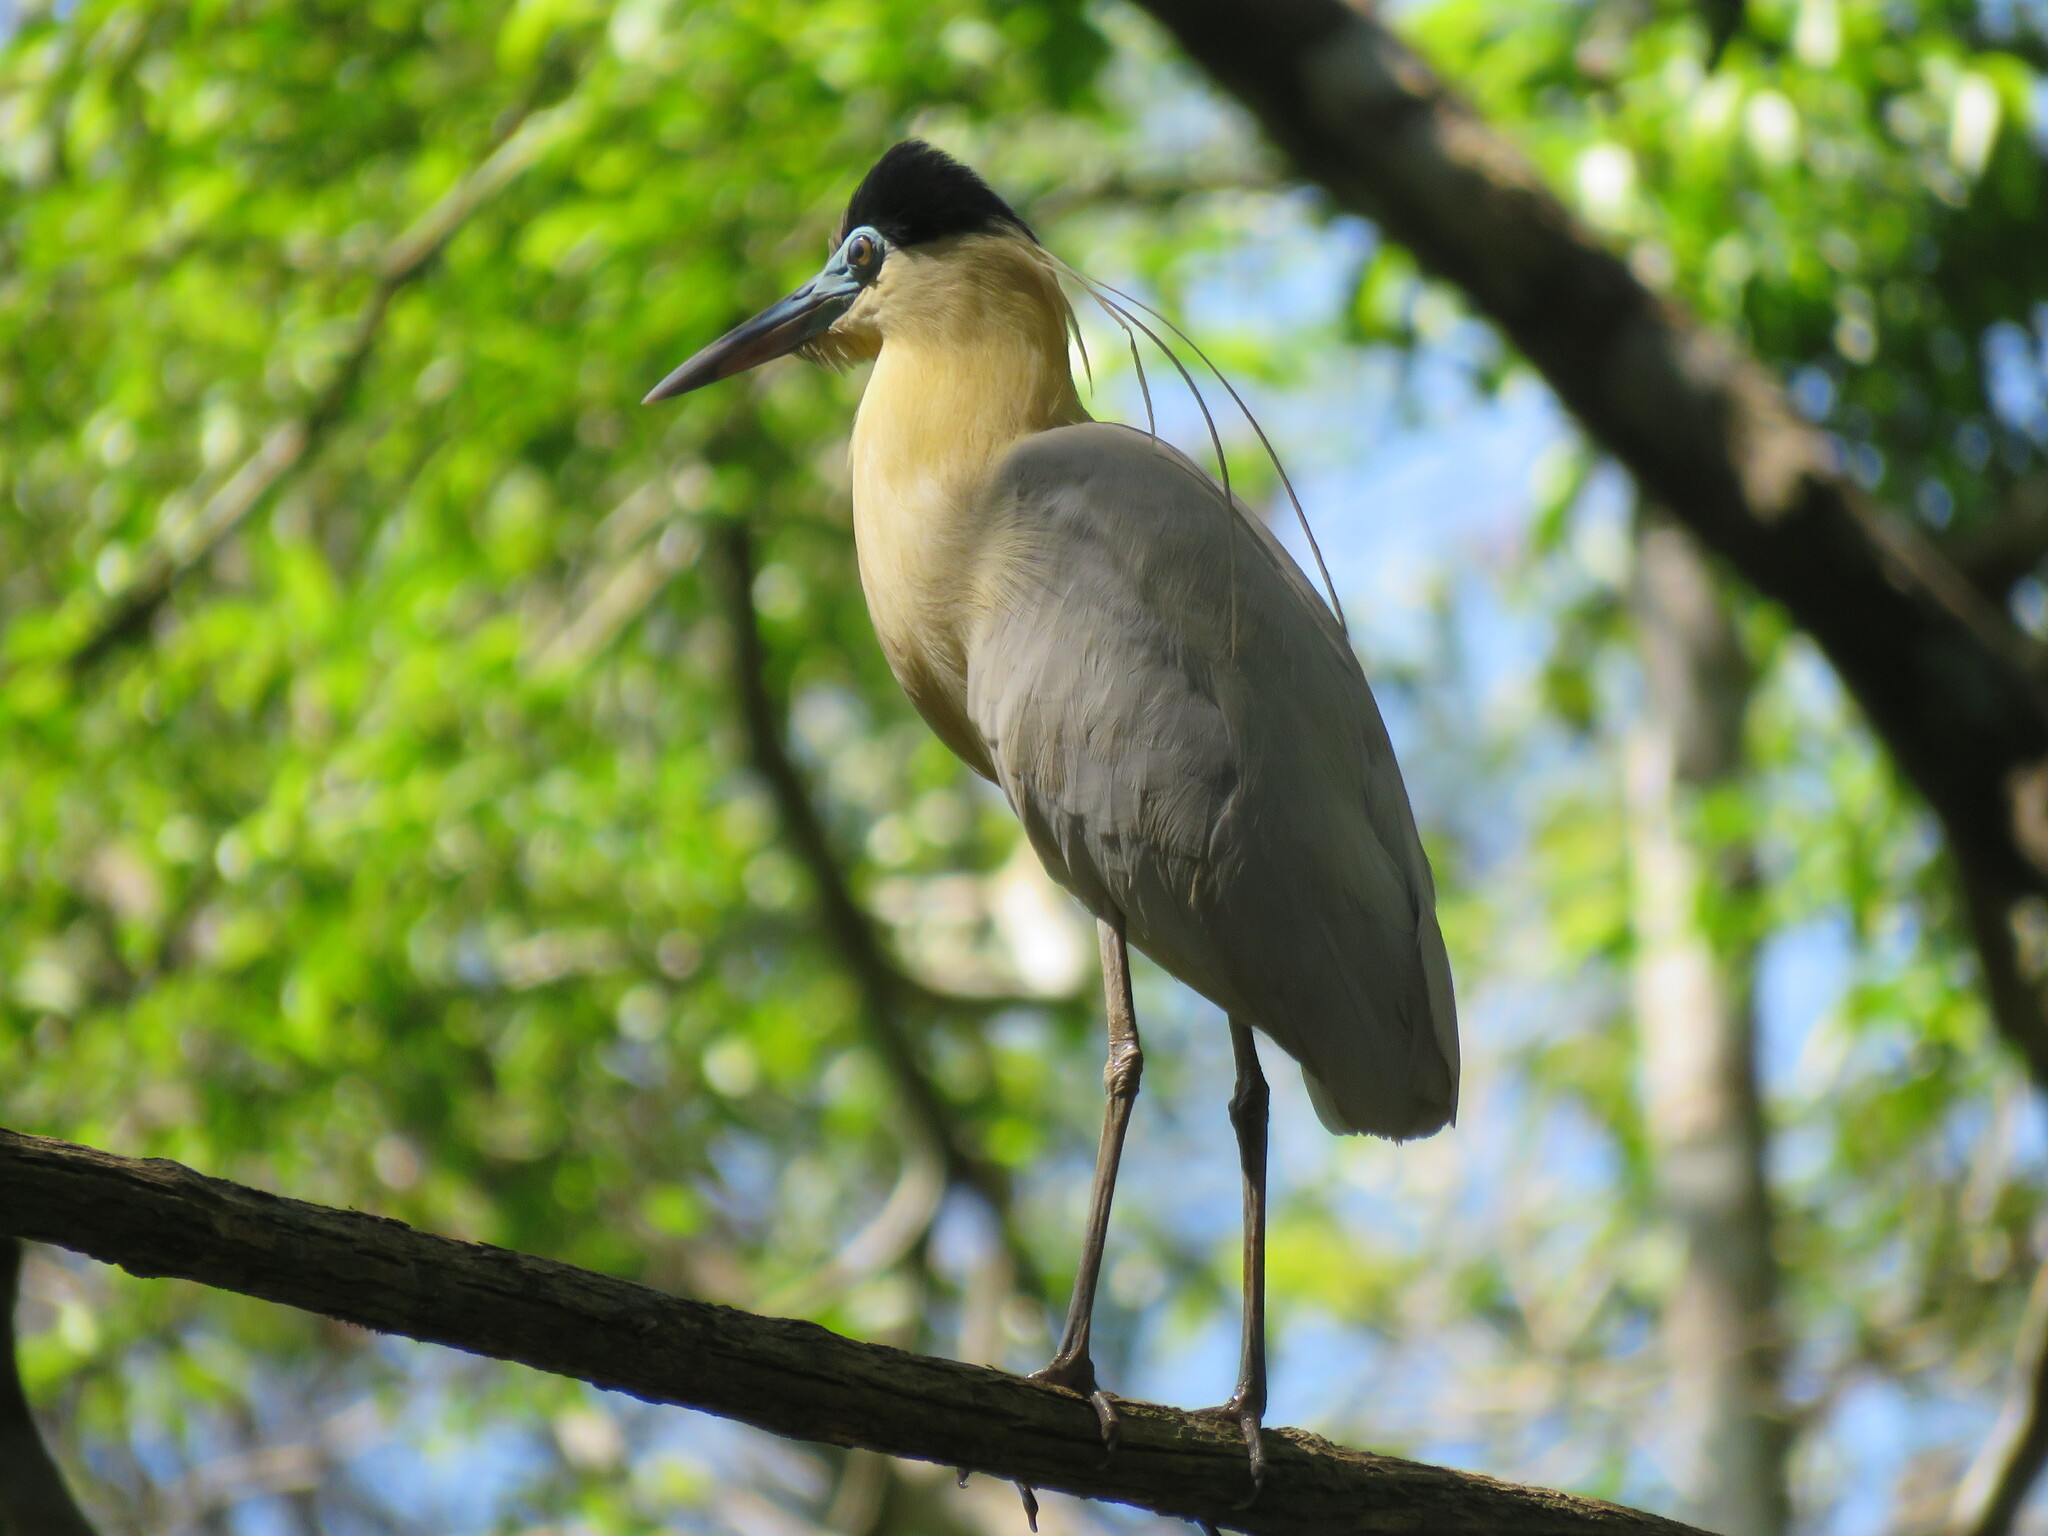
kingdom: Animalia
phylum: Chordata
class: Aves
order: Pelecaniformes
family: Ardeidae
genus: Pilherodius
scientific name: Pilherodius pileatus
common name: Capped heron
